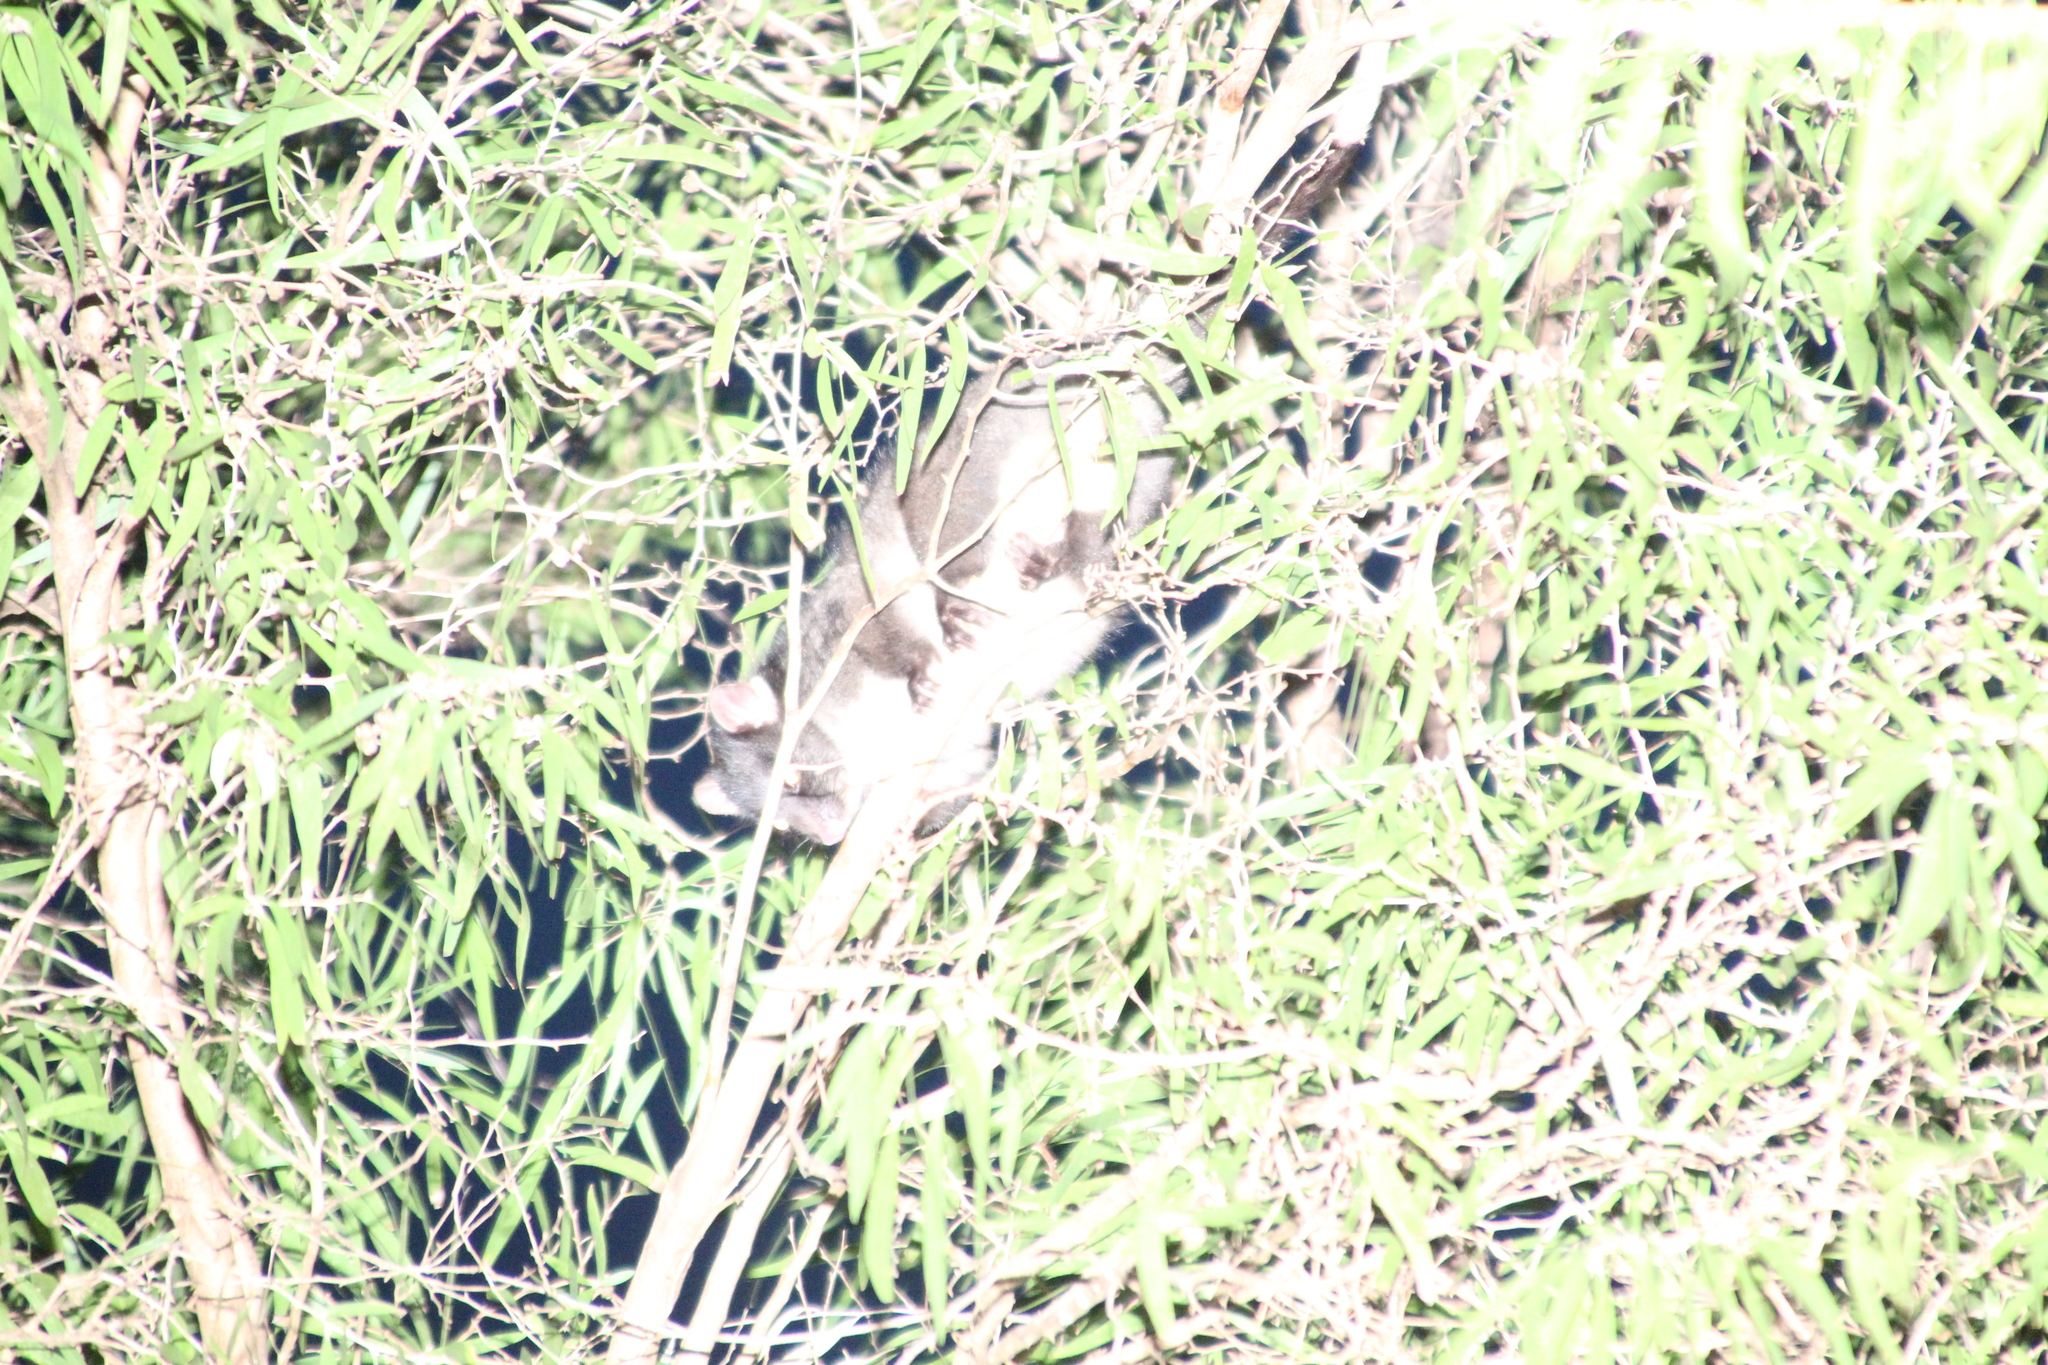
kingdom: Animalia
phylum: Chordata
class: Mammalia
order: Diprotodontia
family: Pseudocheiridae
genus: Pseudocheirus
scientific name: Pseudocheirus peregrinus
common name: Common ringtail possum
